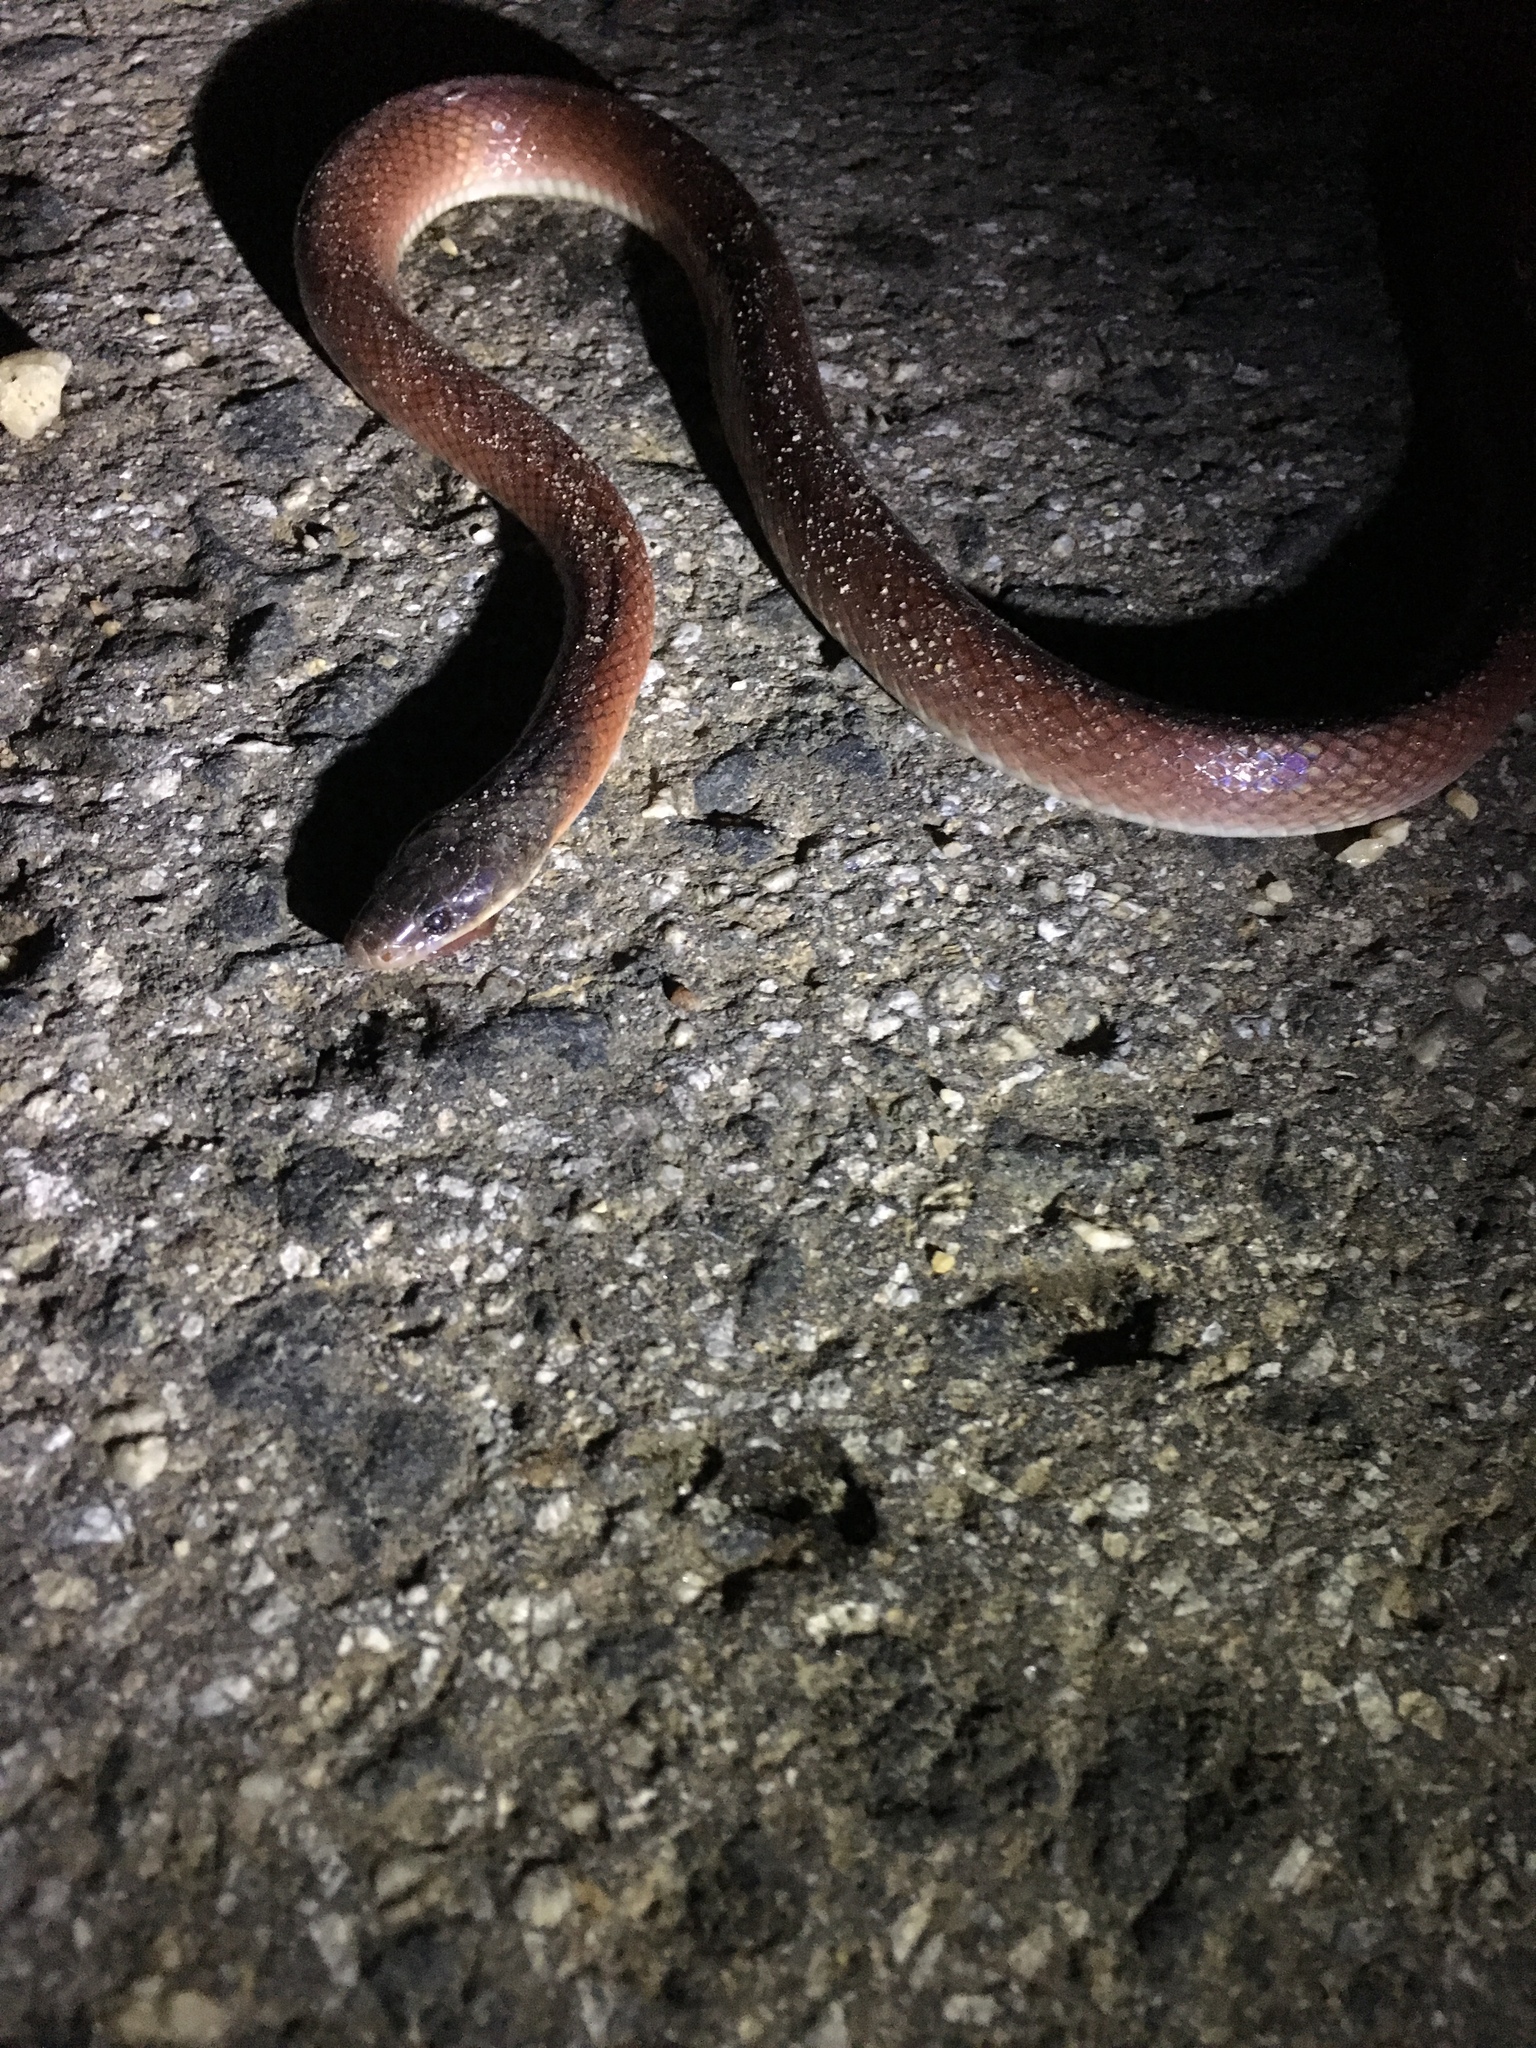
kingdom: Animalia
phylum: Chordata
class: Squamata
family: Colubridae
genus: Pseudoboa
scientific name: Pseudoboa neuwiedii
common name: Neuwied's false boa
